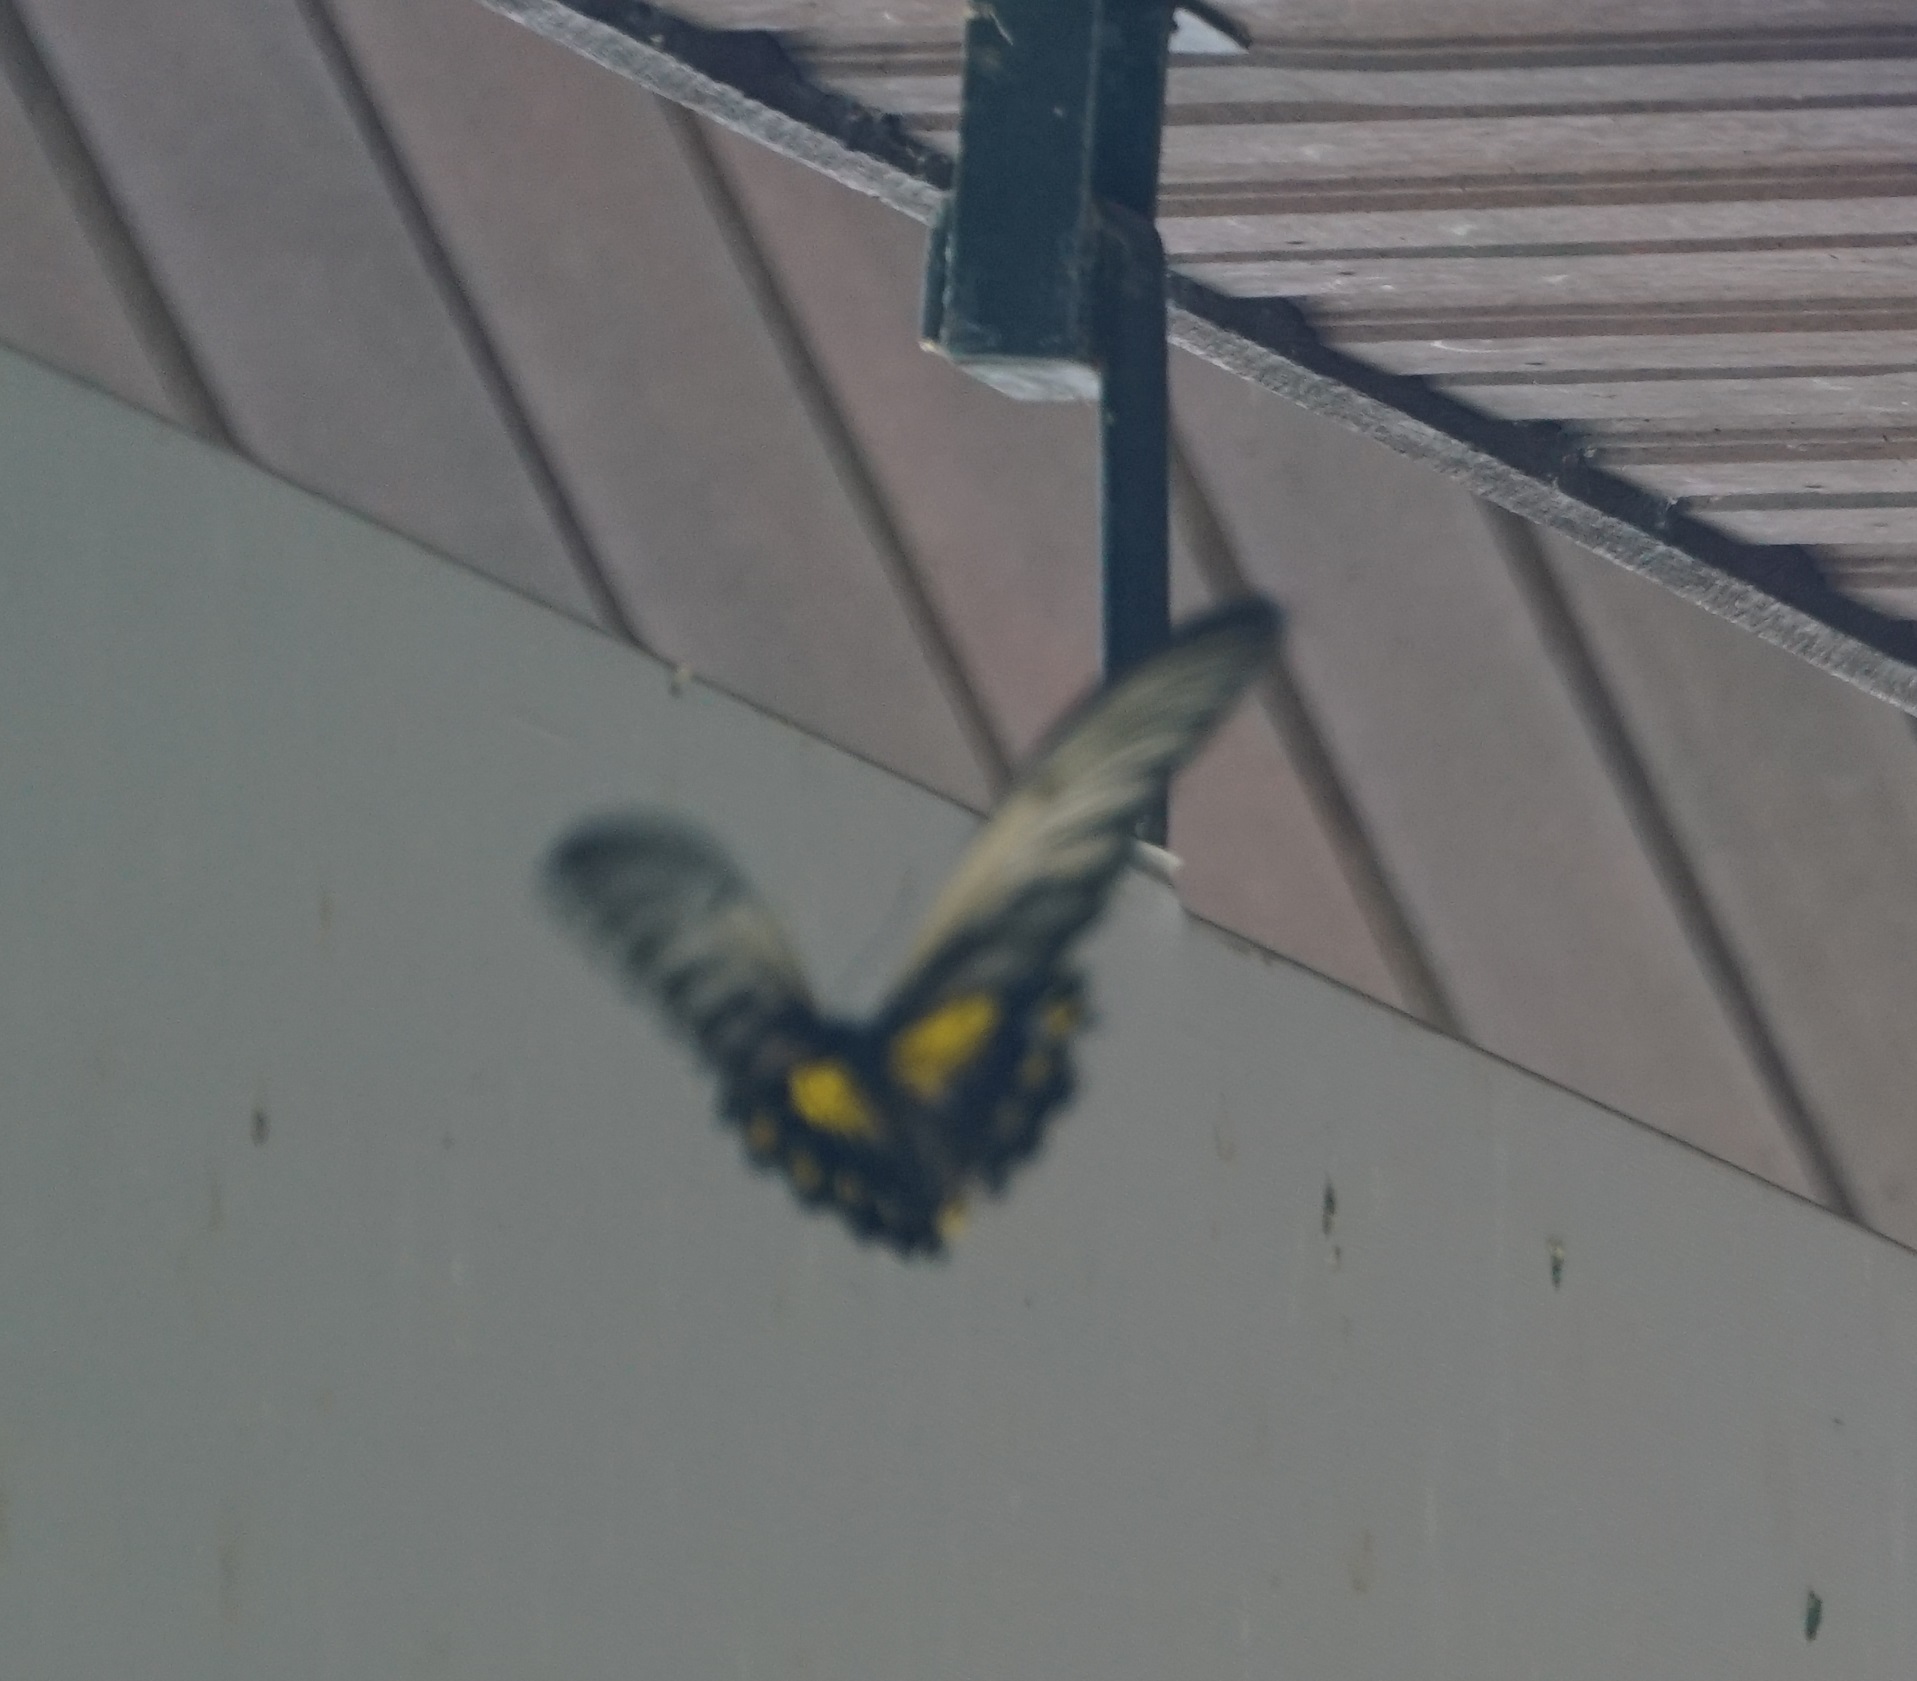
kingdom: Animalia
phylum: Arthropoda
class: Insecta
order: Lepidoptera
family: Papilionidae
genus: Troides
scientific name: Troides amphrysus
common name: Malay birdwing
